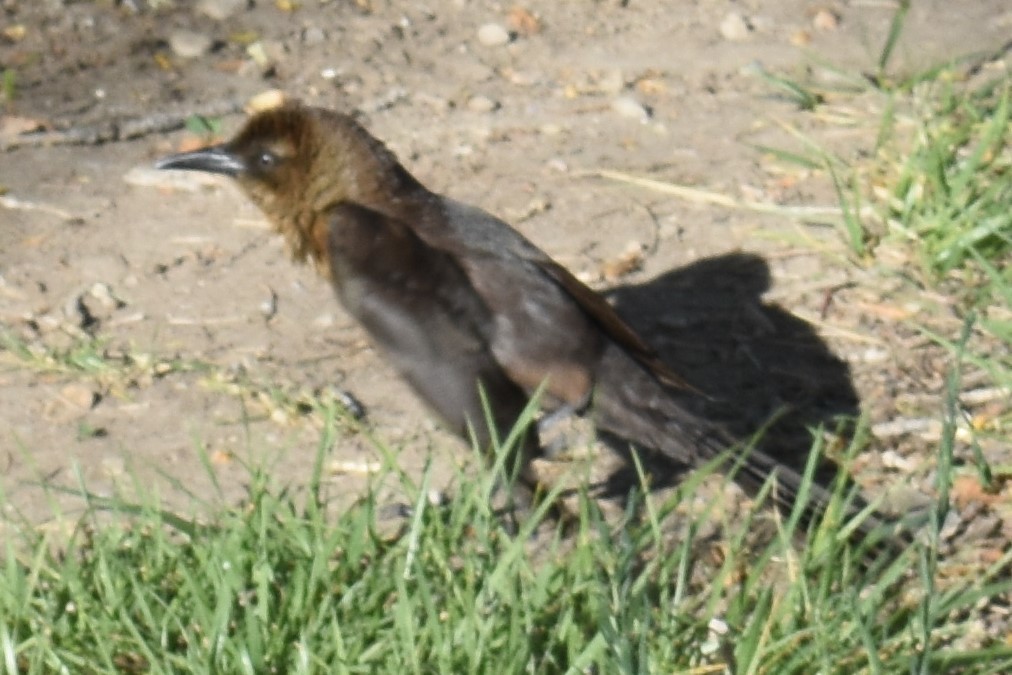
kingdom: Animalia
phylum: Chordata
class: Aves
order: Passeriformes
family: Icteridae
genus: Quiscalus
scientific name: Quiscalus mexicanus
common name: Great-tailed grackle
